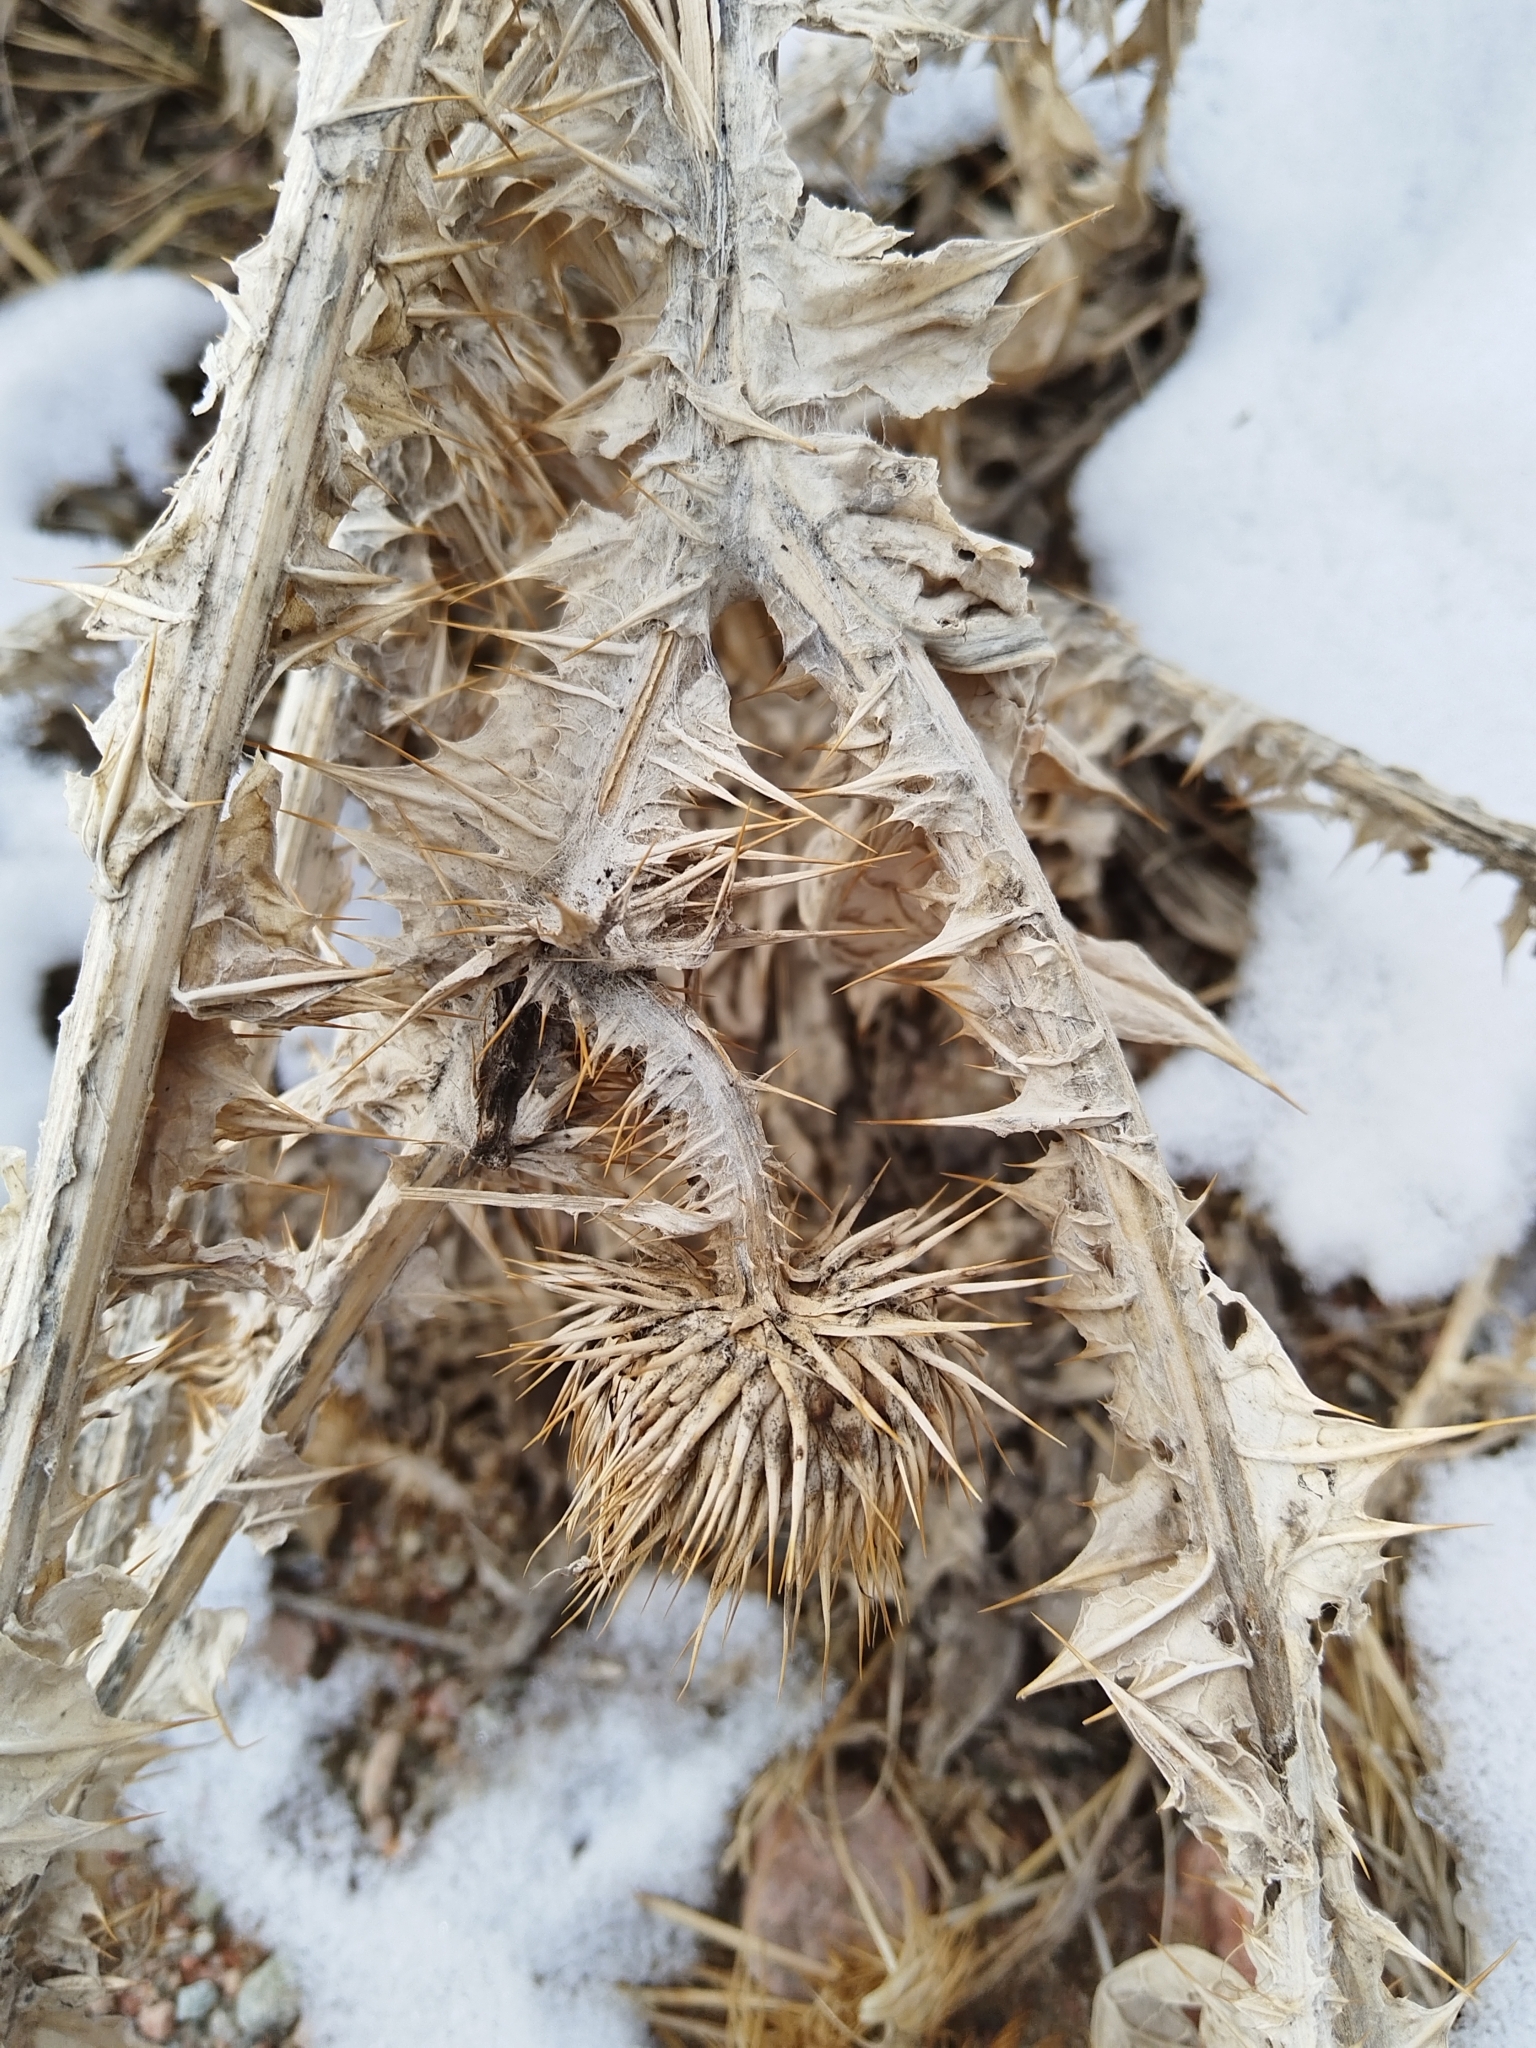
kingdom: Plantae
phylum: Tracheophyta
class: Magnoliopsida
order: Asterales
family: Asteraceae
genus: Onopordum
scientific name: Onopordum acanthium
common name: Scotch thistle
